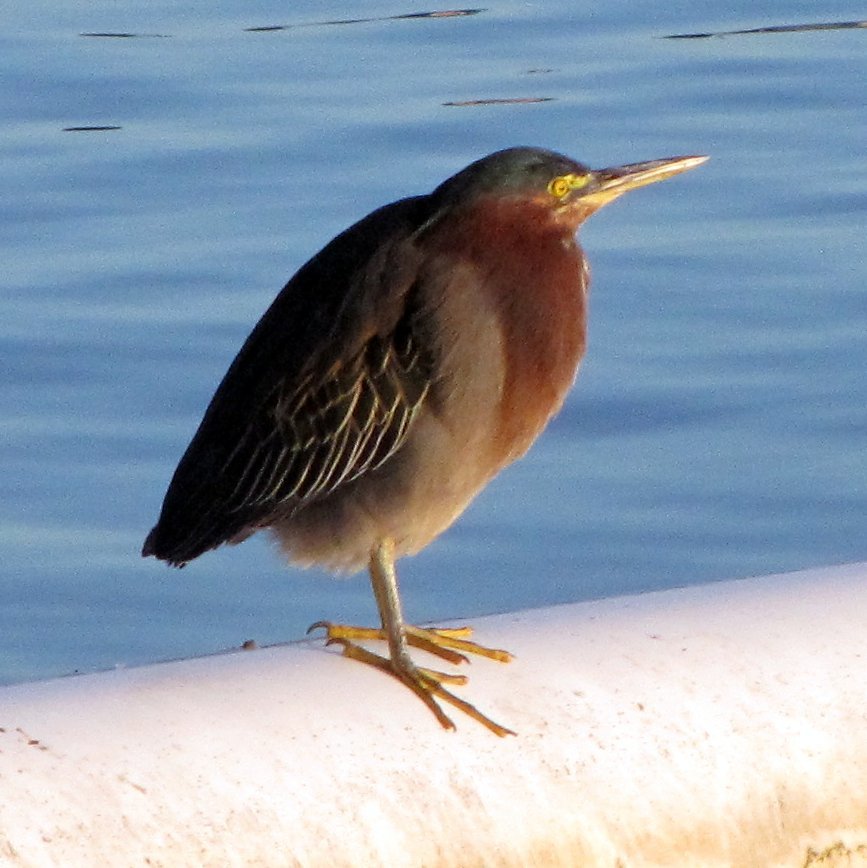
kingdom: Animalia
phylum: Chordata
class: Aves
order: Pelecaniformes
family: Ardeidae
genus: Butorides
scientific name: Butorides virescens
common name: Green heron
